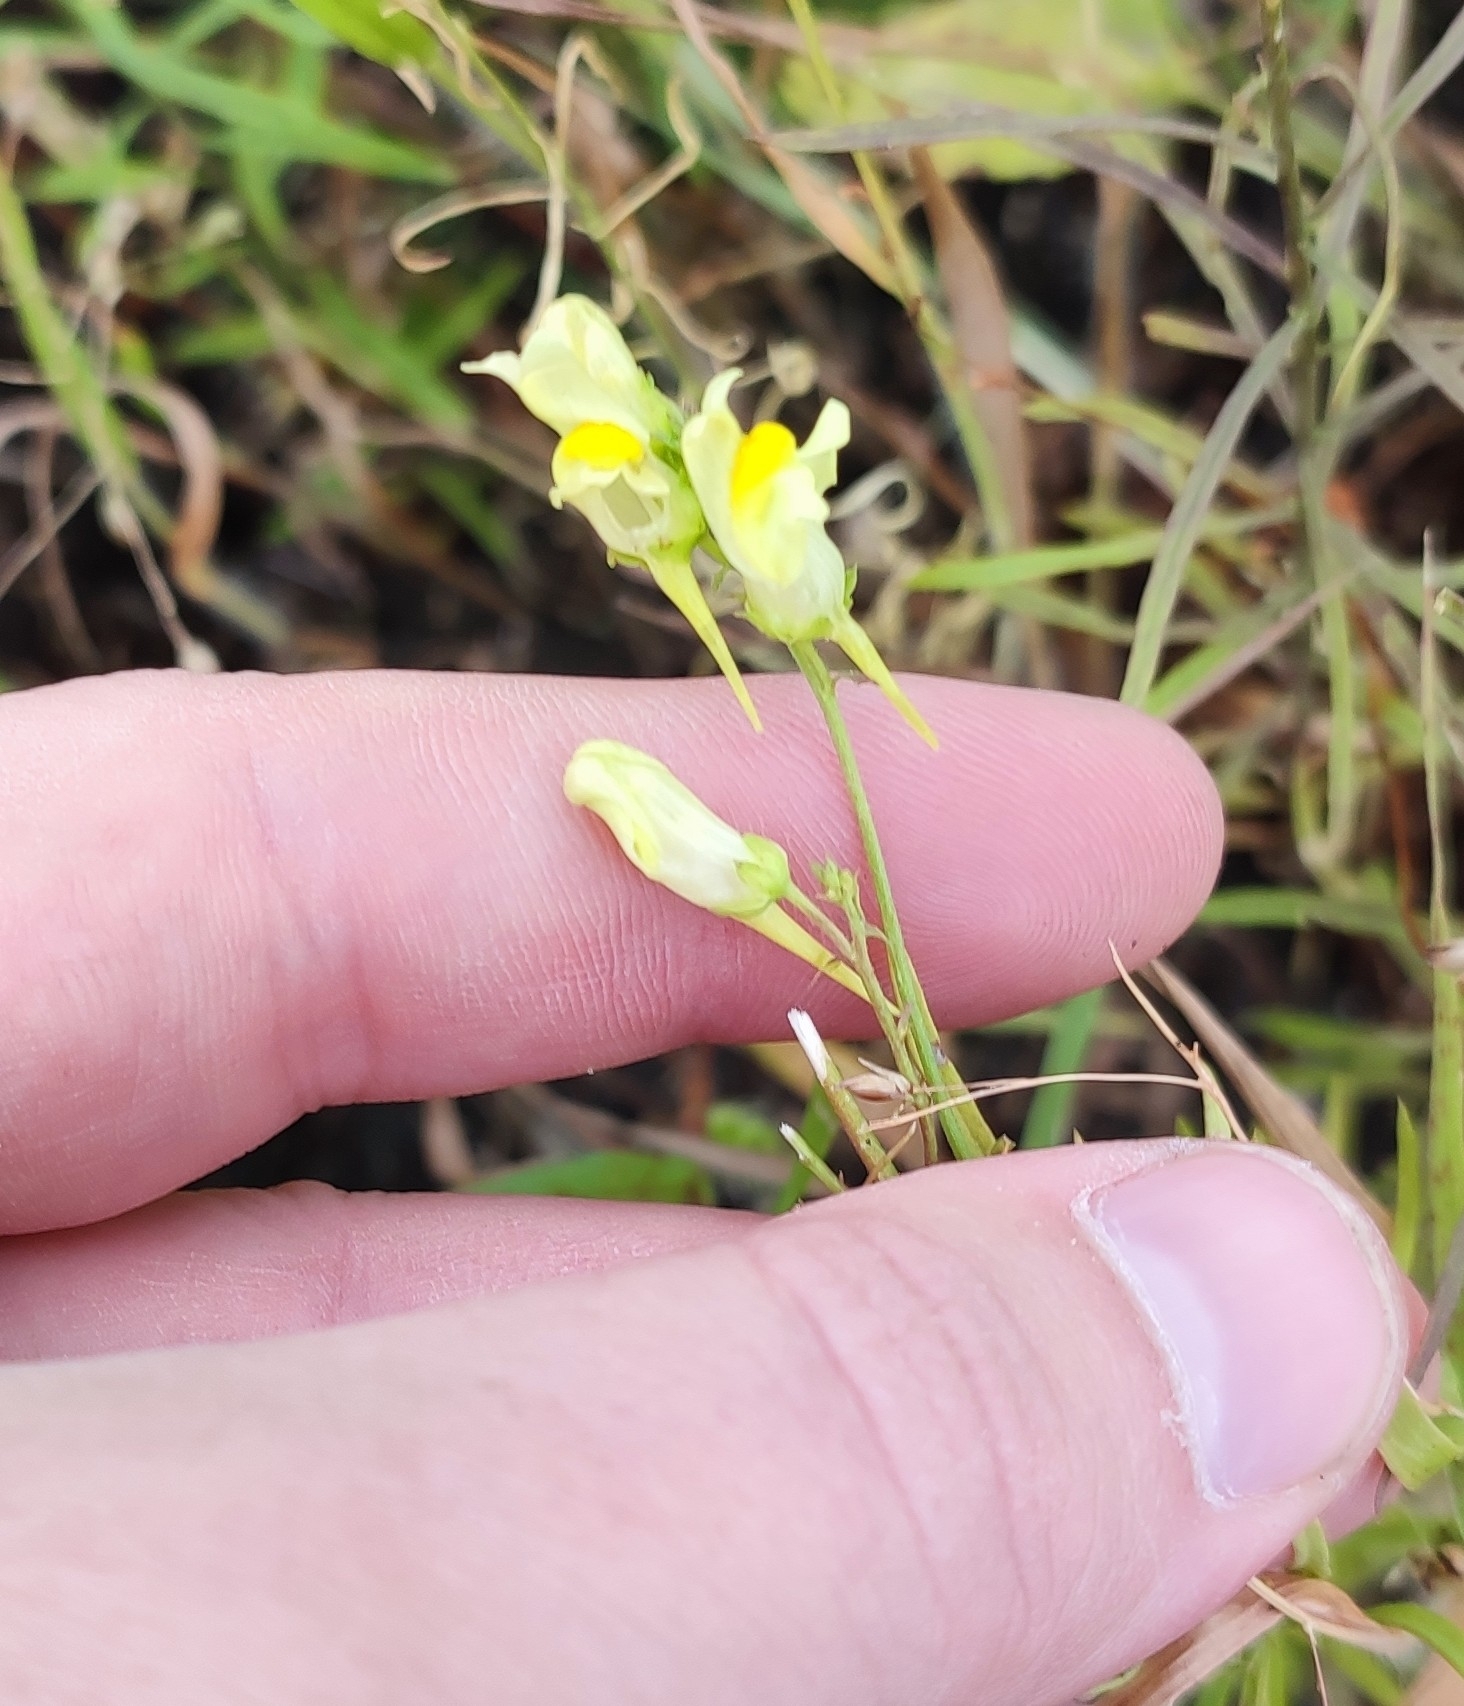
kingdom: Plantae
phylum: Tracheophyta
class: Magnoliopsida
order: Lamiales
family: Plantaginaceae
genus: Linaria
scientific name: Linaria vulgaris
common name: Butter and eggs
